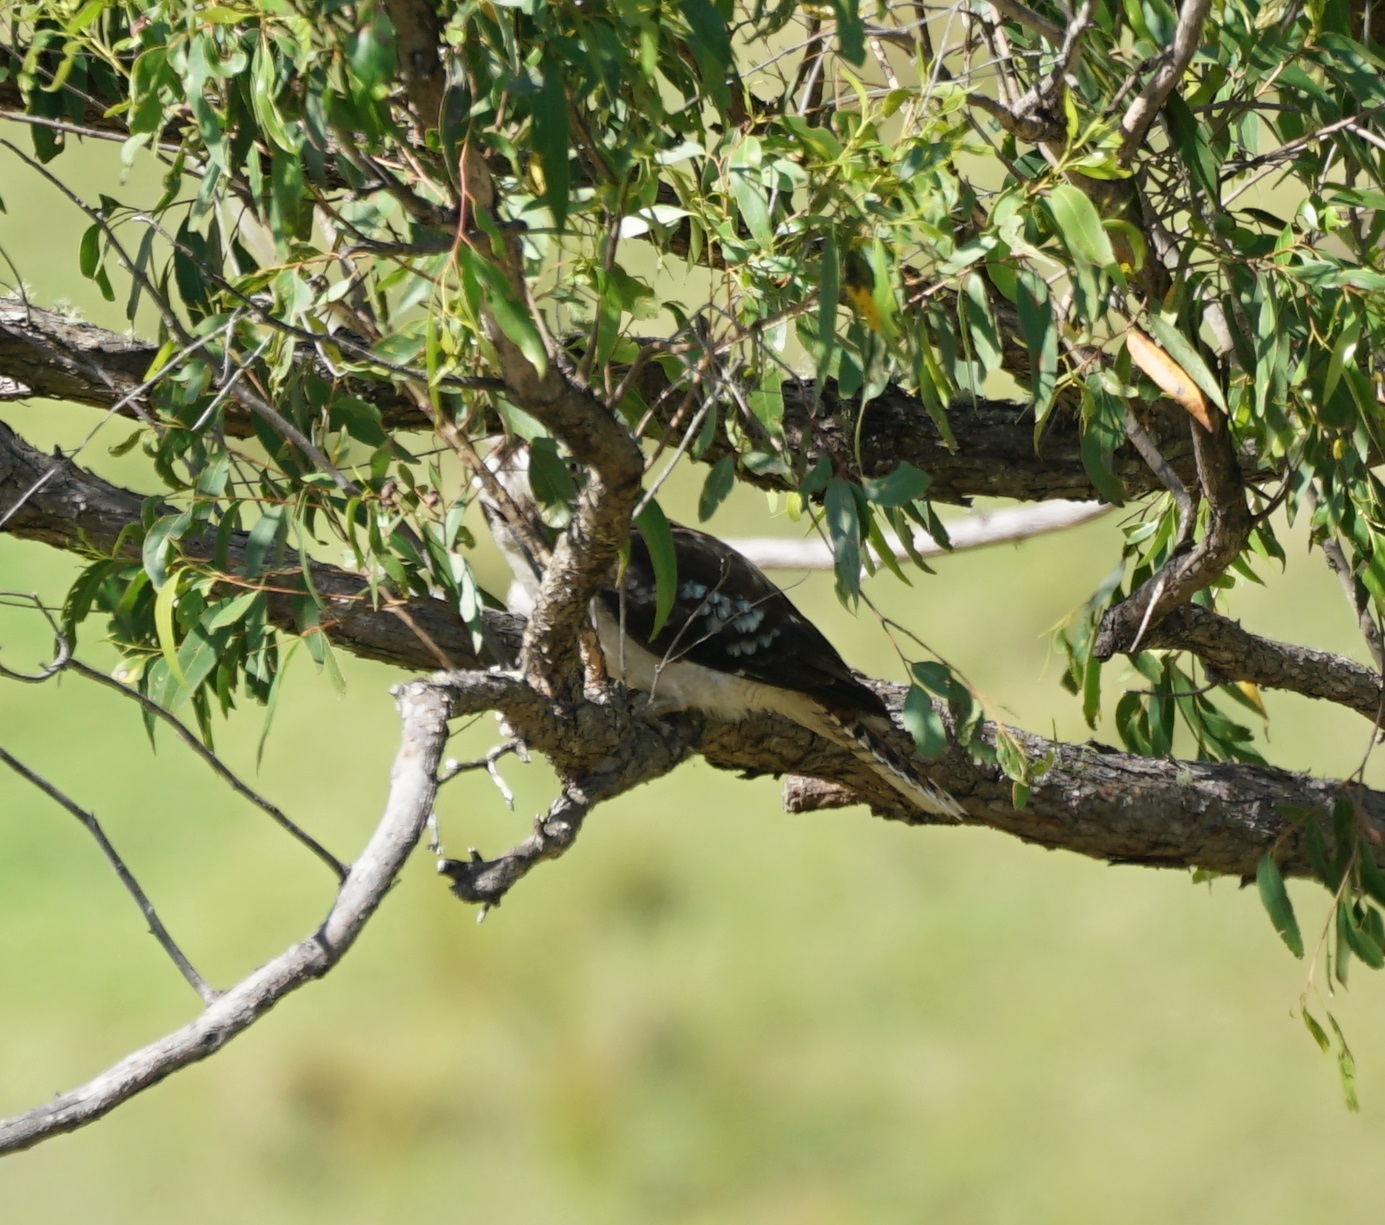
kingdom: Animalia
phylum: Chordata
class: Aves
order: Coraciiformes
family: Alcedinidae
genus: Dacelo
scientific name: Dacelo novaeguineae
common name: Laughing kookaburra
